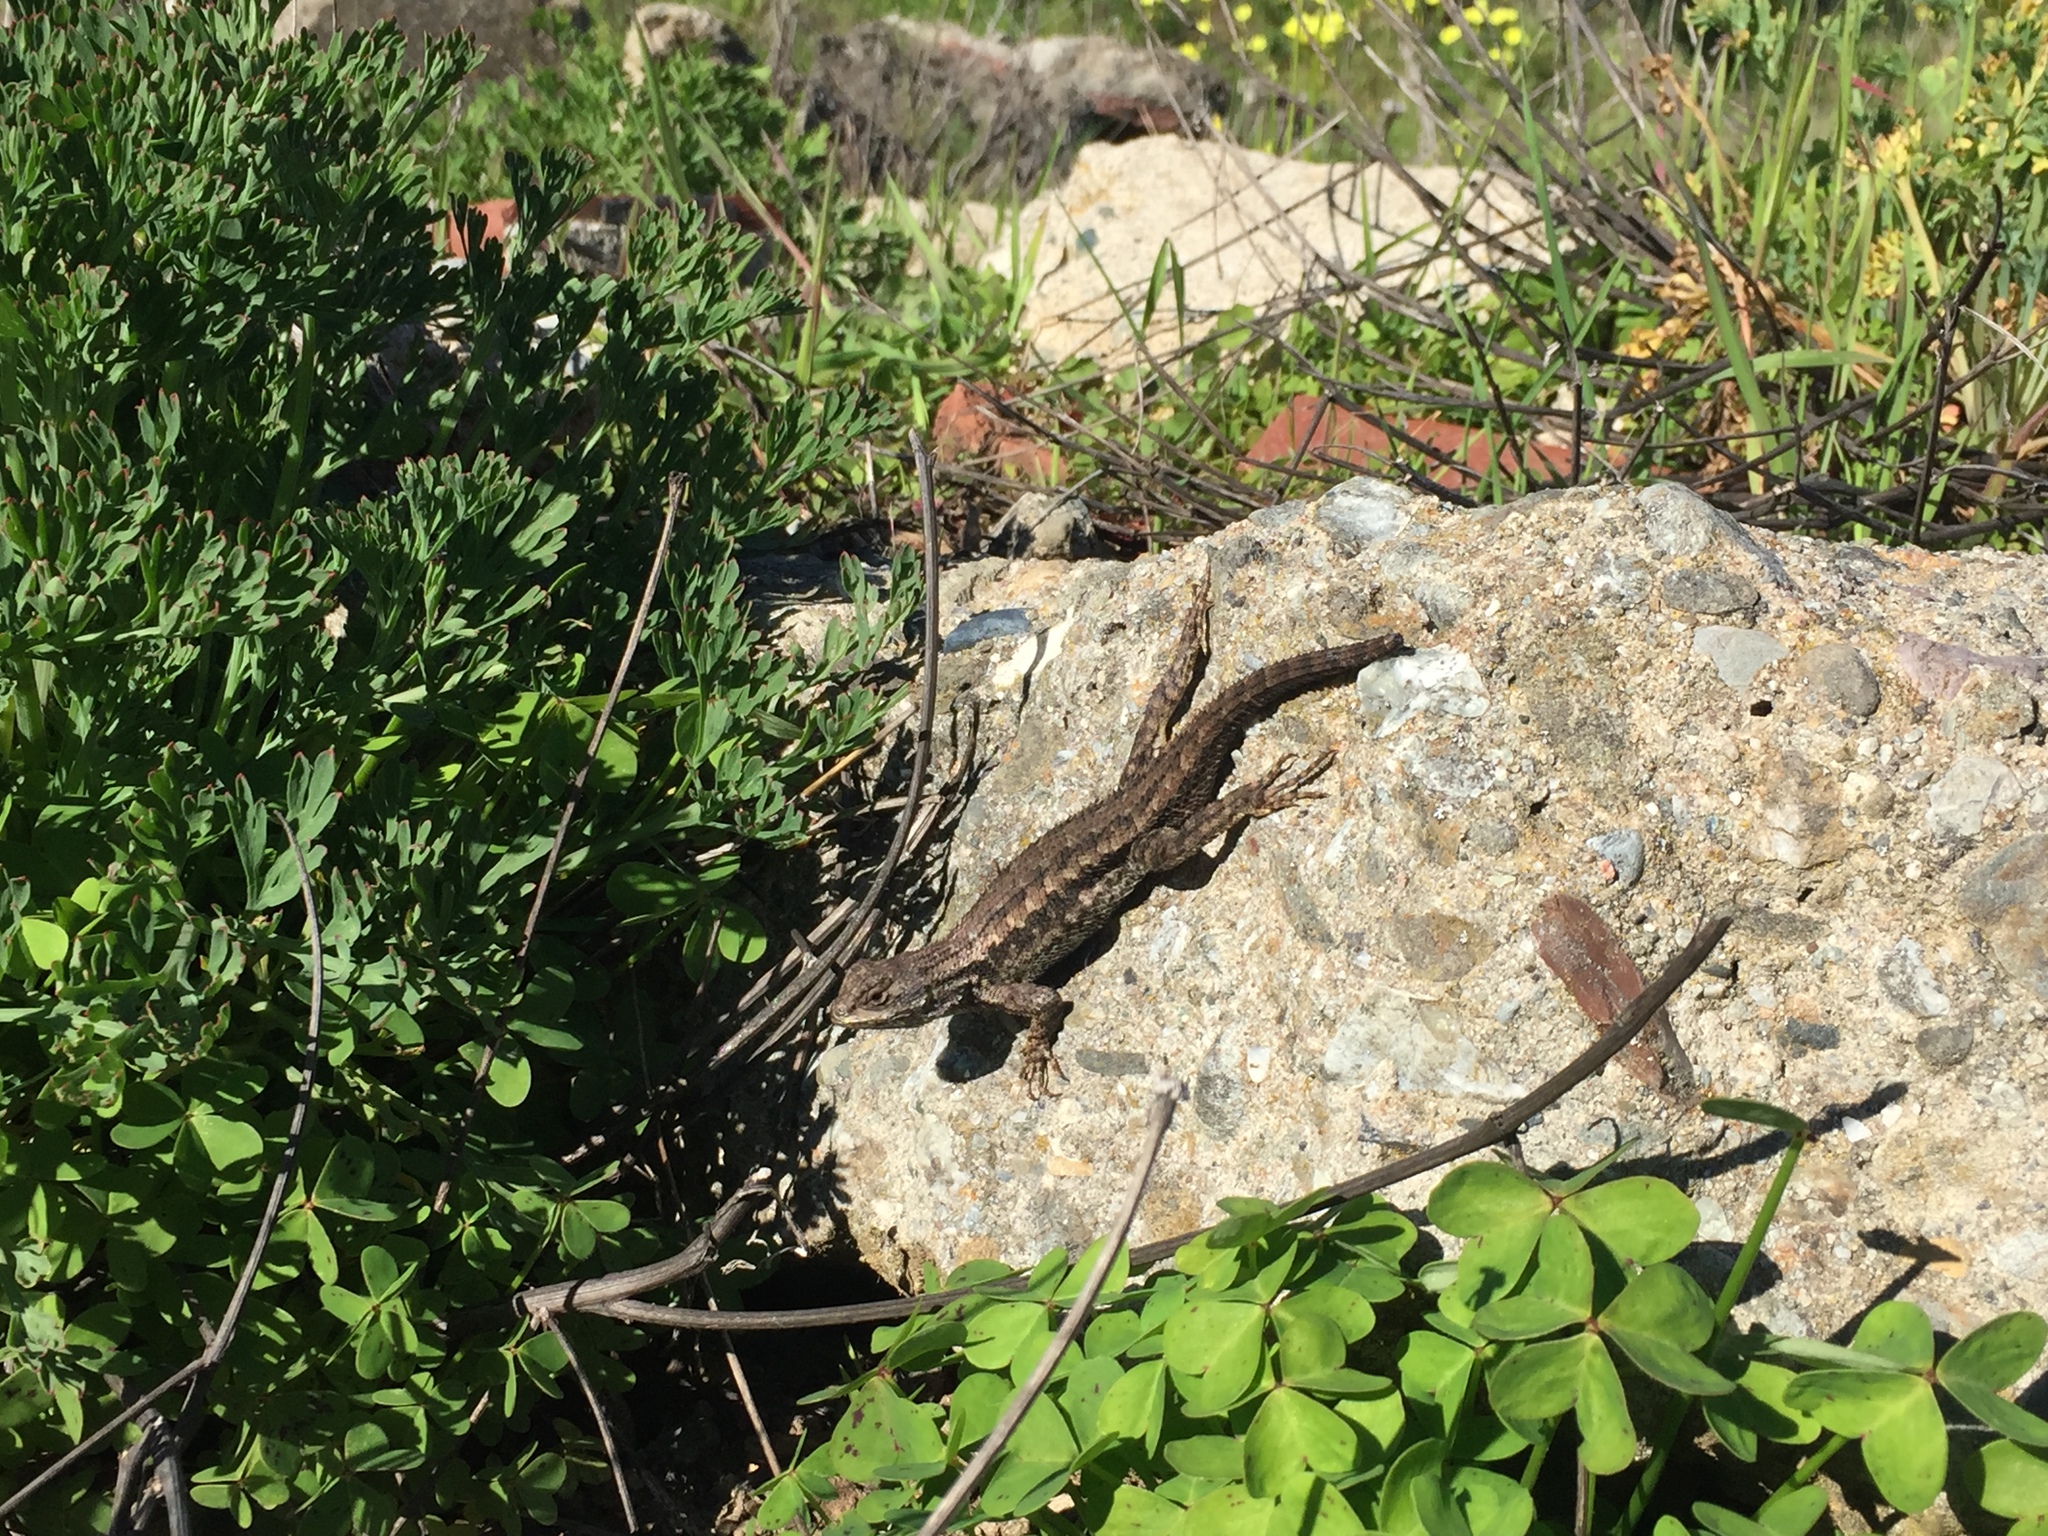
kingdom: Animalia
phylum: Chordata
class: Squamata
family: Phrynosomatidae
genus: Sceloporus
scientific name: Sceloporus occidentalis
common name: Western fence lizard
